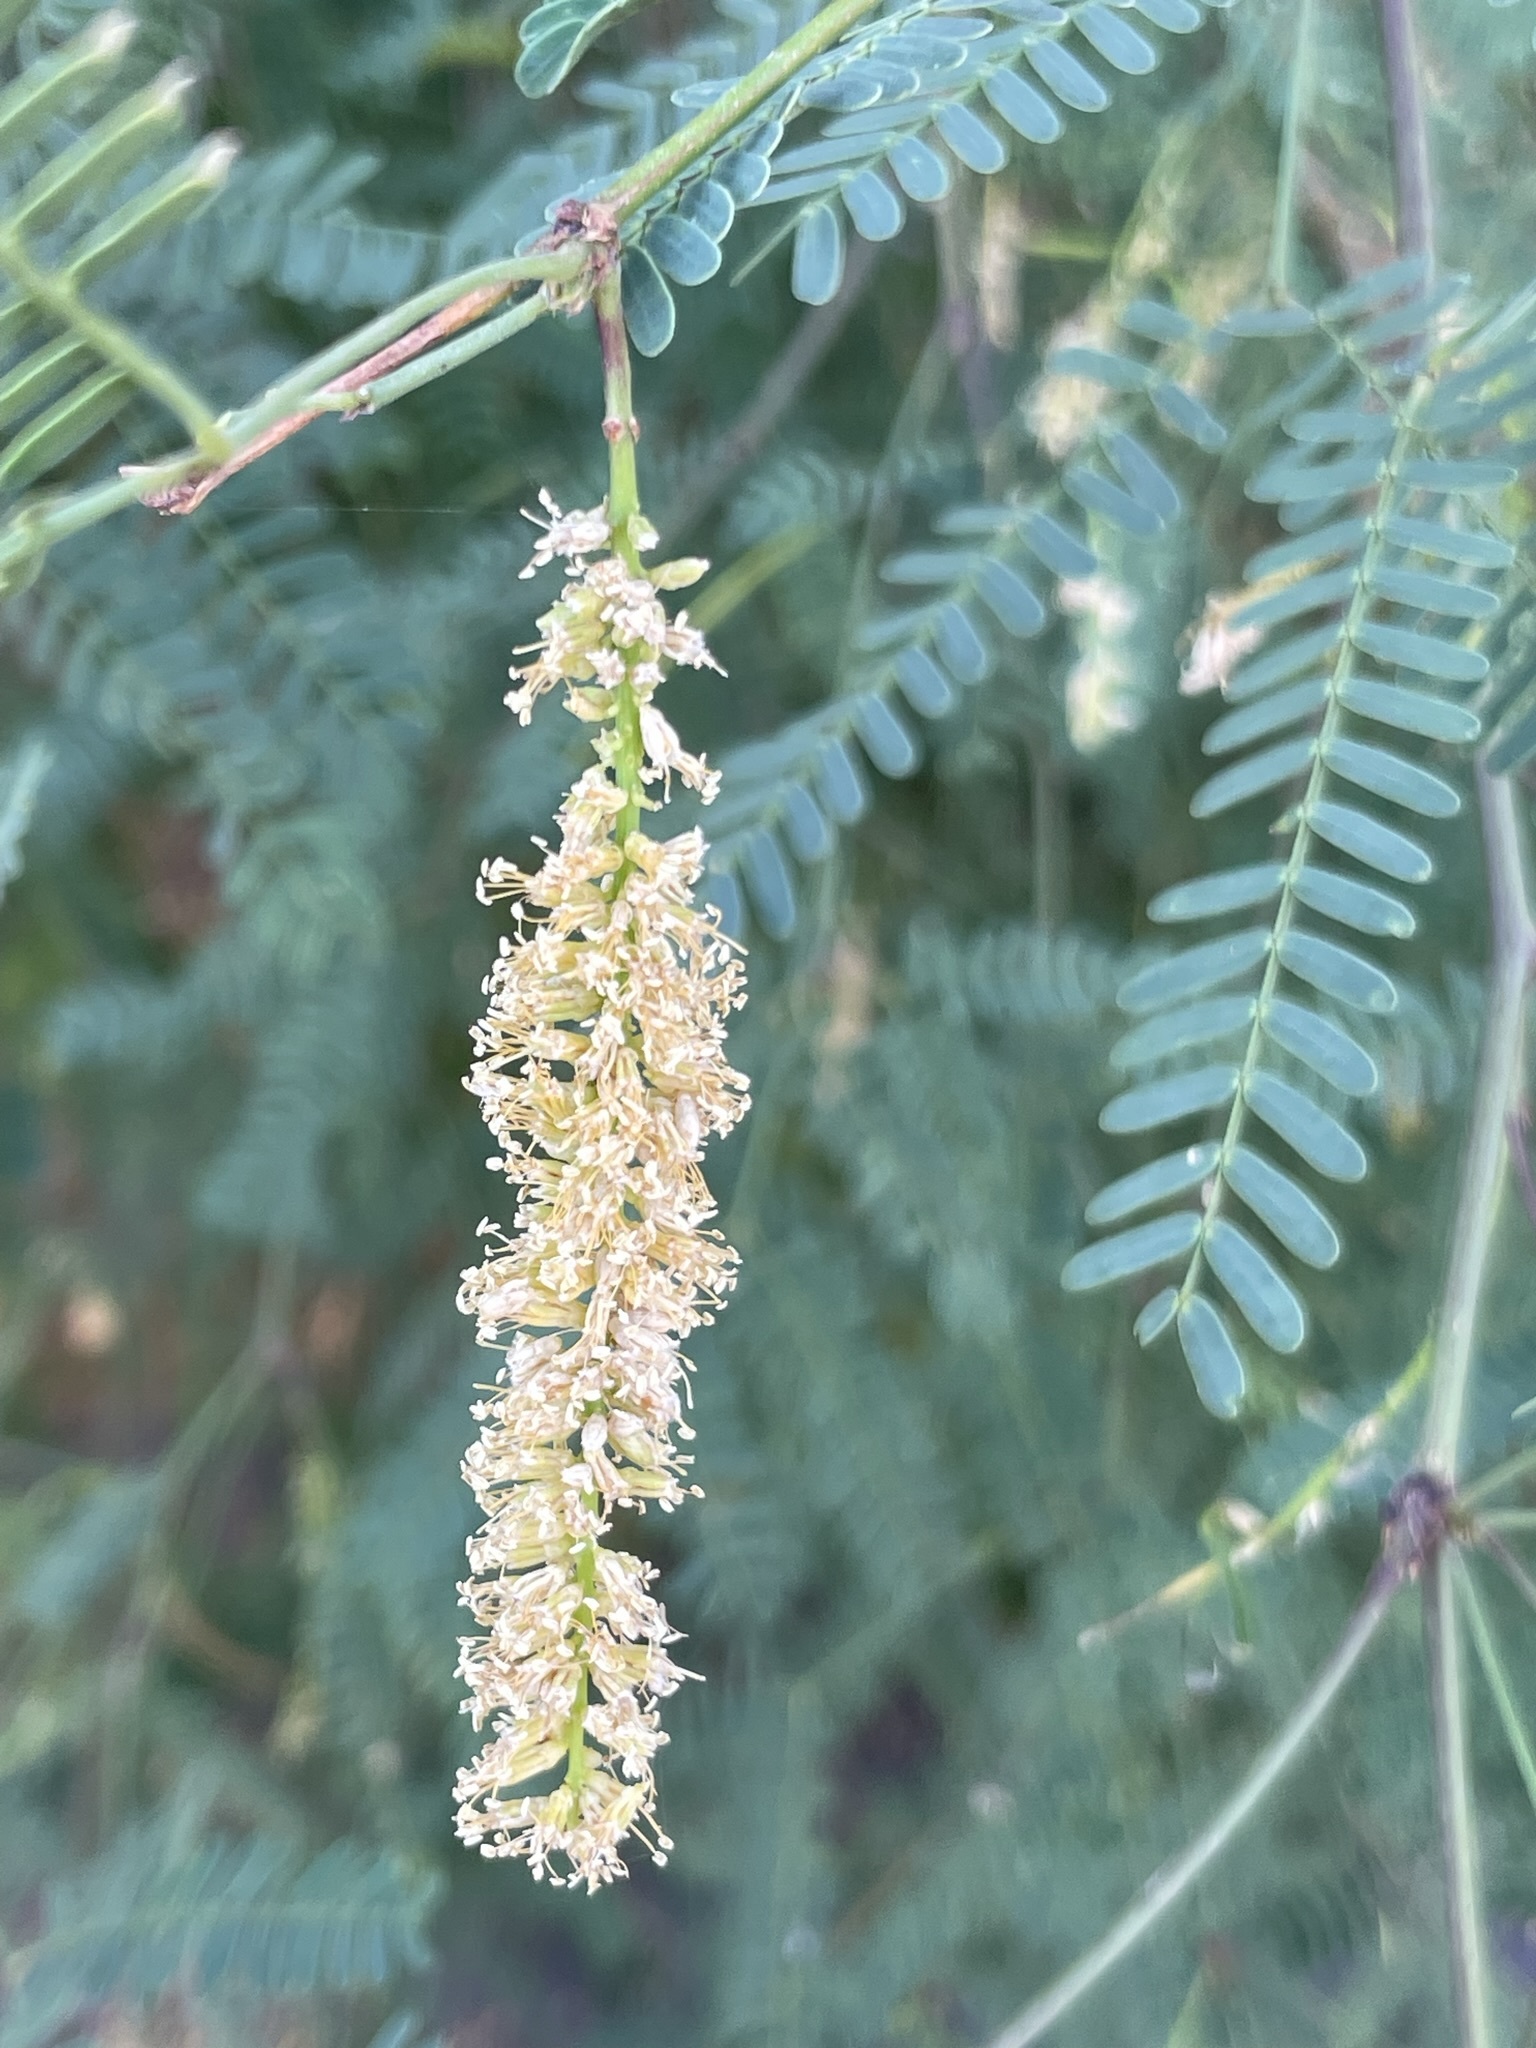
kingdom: Plantae
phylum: Tracheophyta
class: Magnoliopsida
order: Fabales
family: Fabaceae
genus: Prosopis
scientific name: Prosopis articulata
